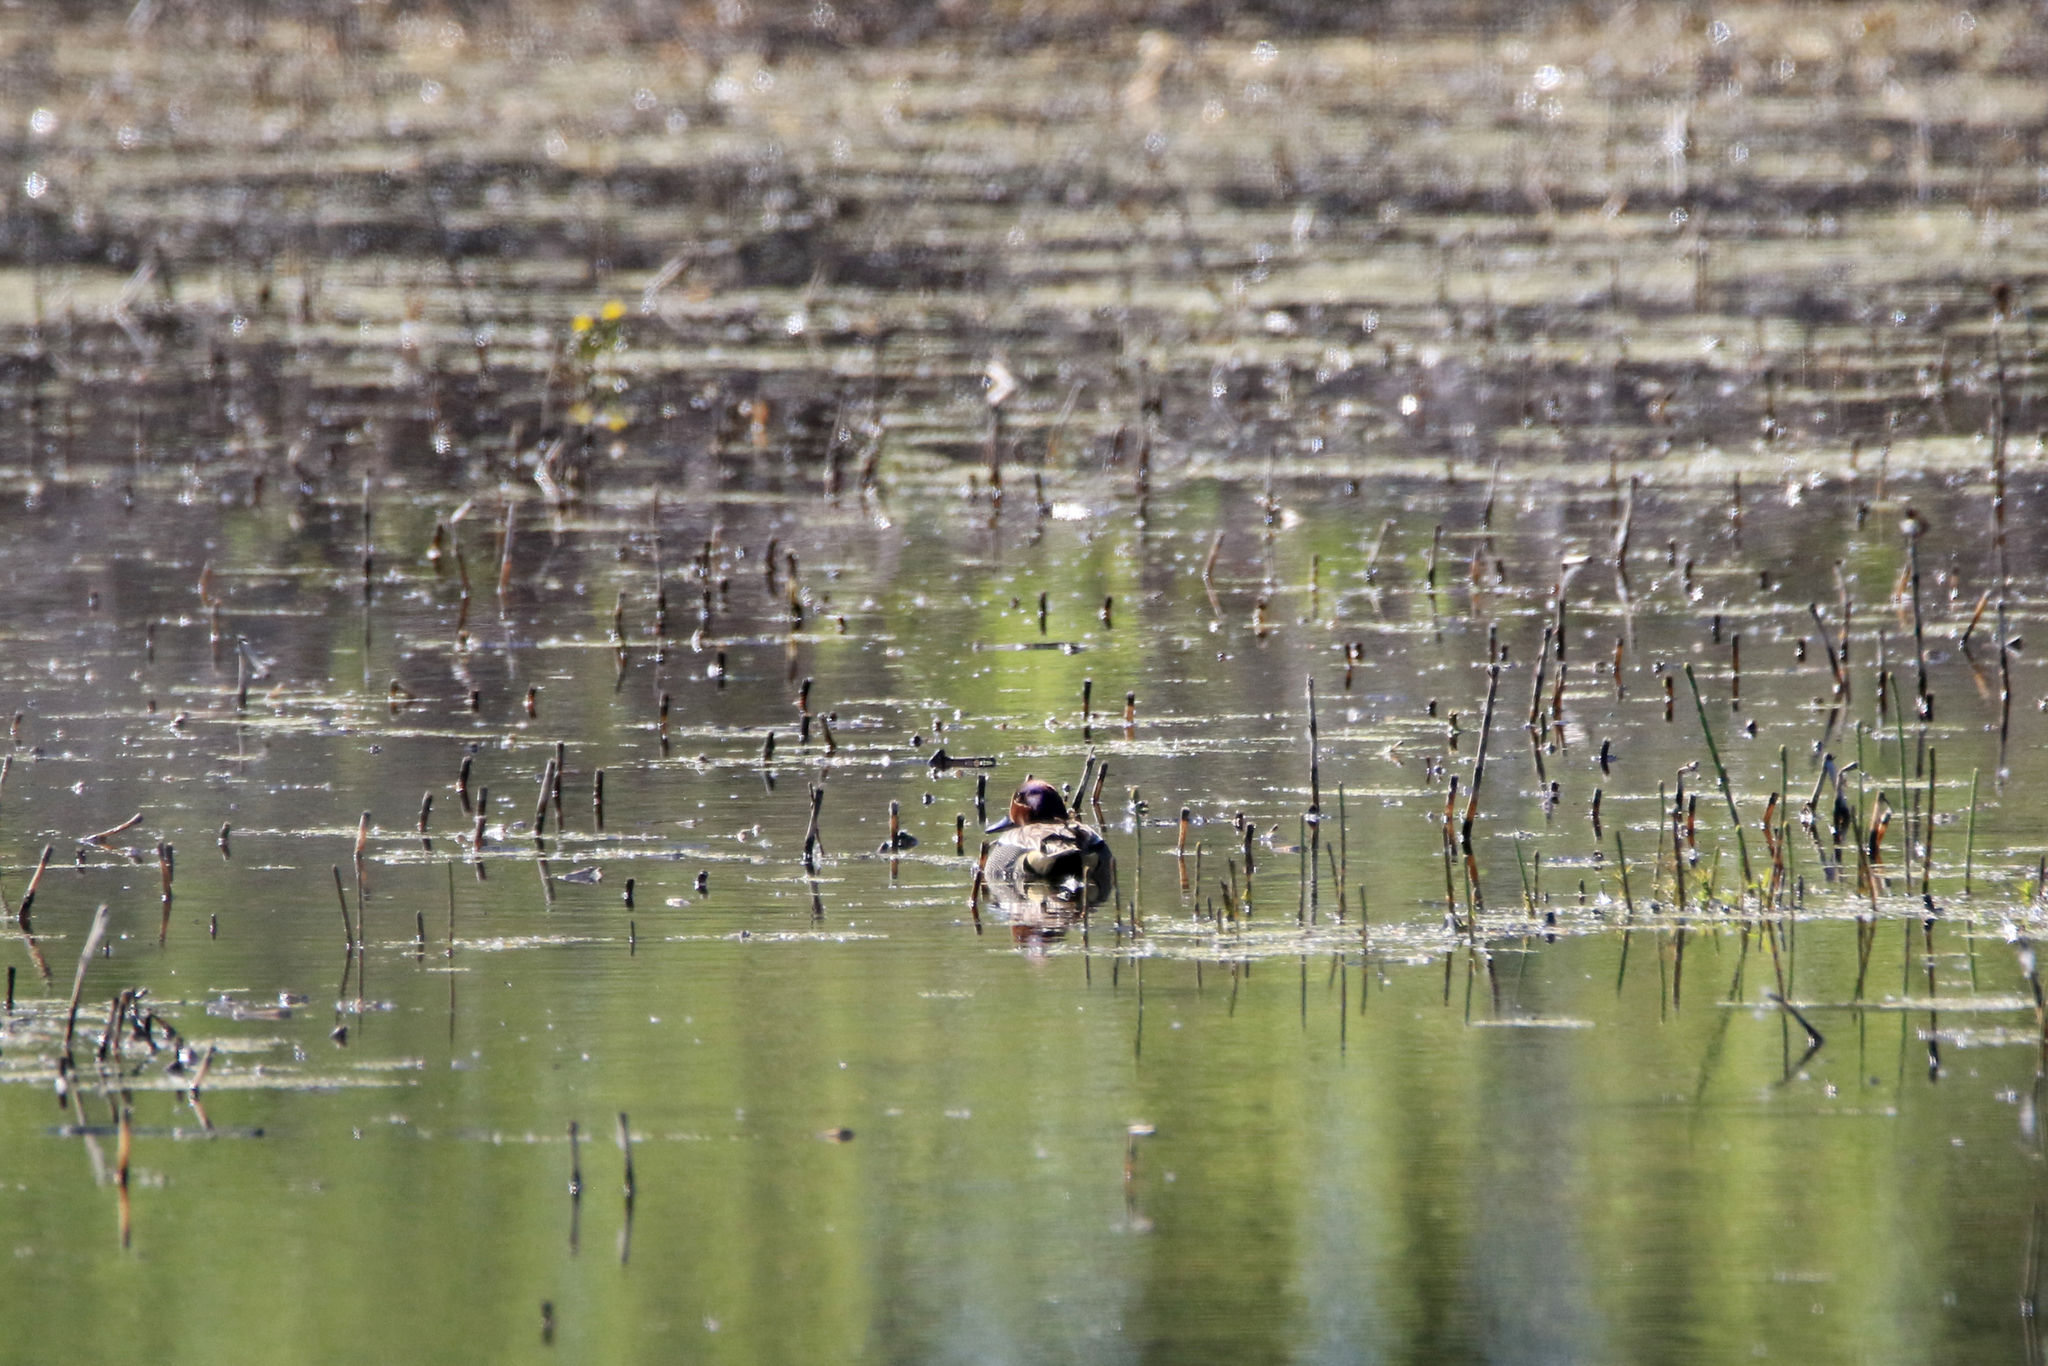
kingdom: Animalia
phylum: Chordata
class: Aves
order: Anseriformes
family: Anatidae
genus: Anas
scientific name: Anas crecca
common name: Eurasian teal
